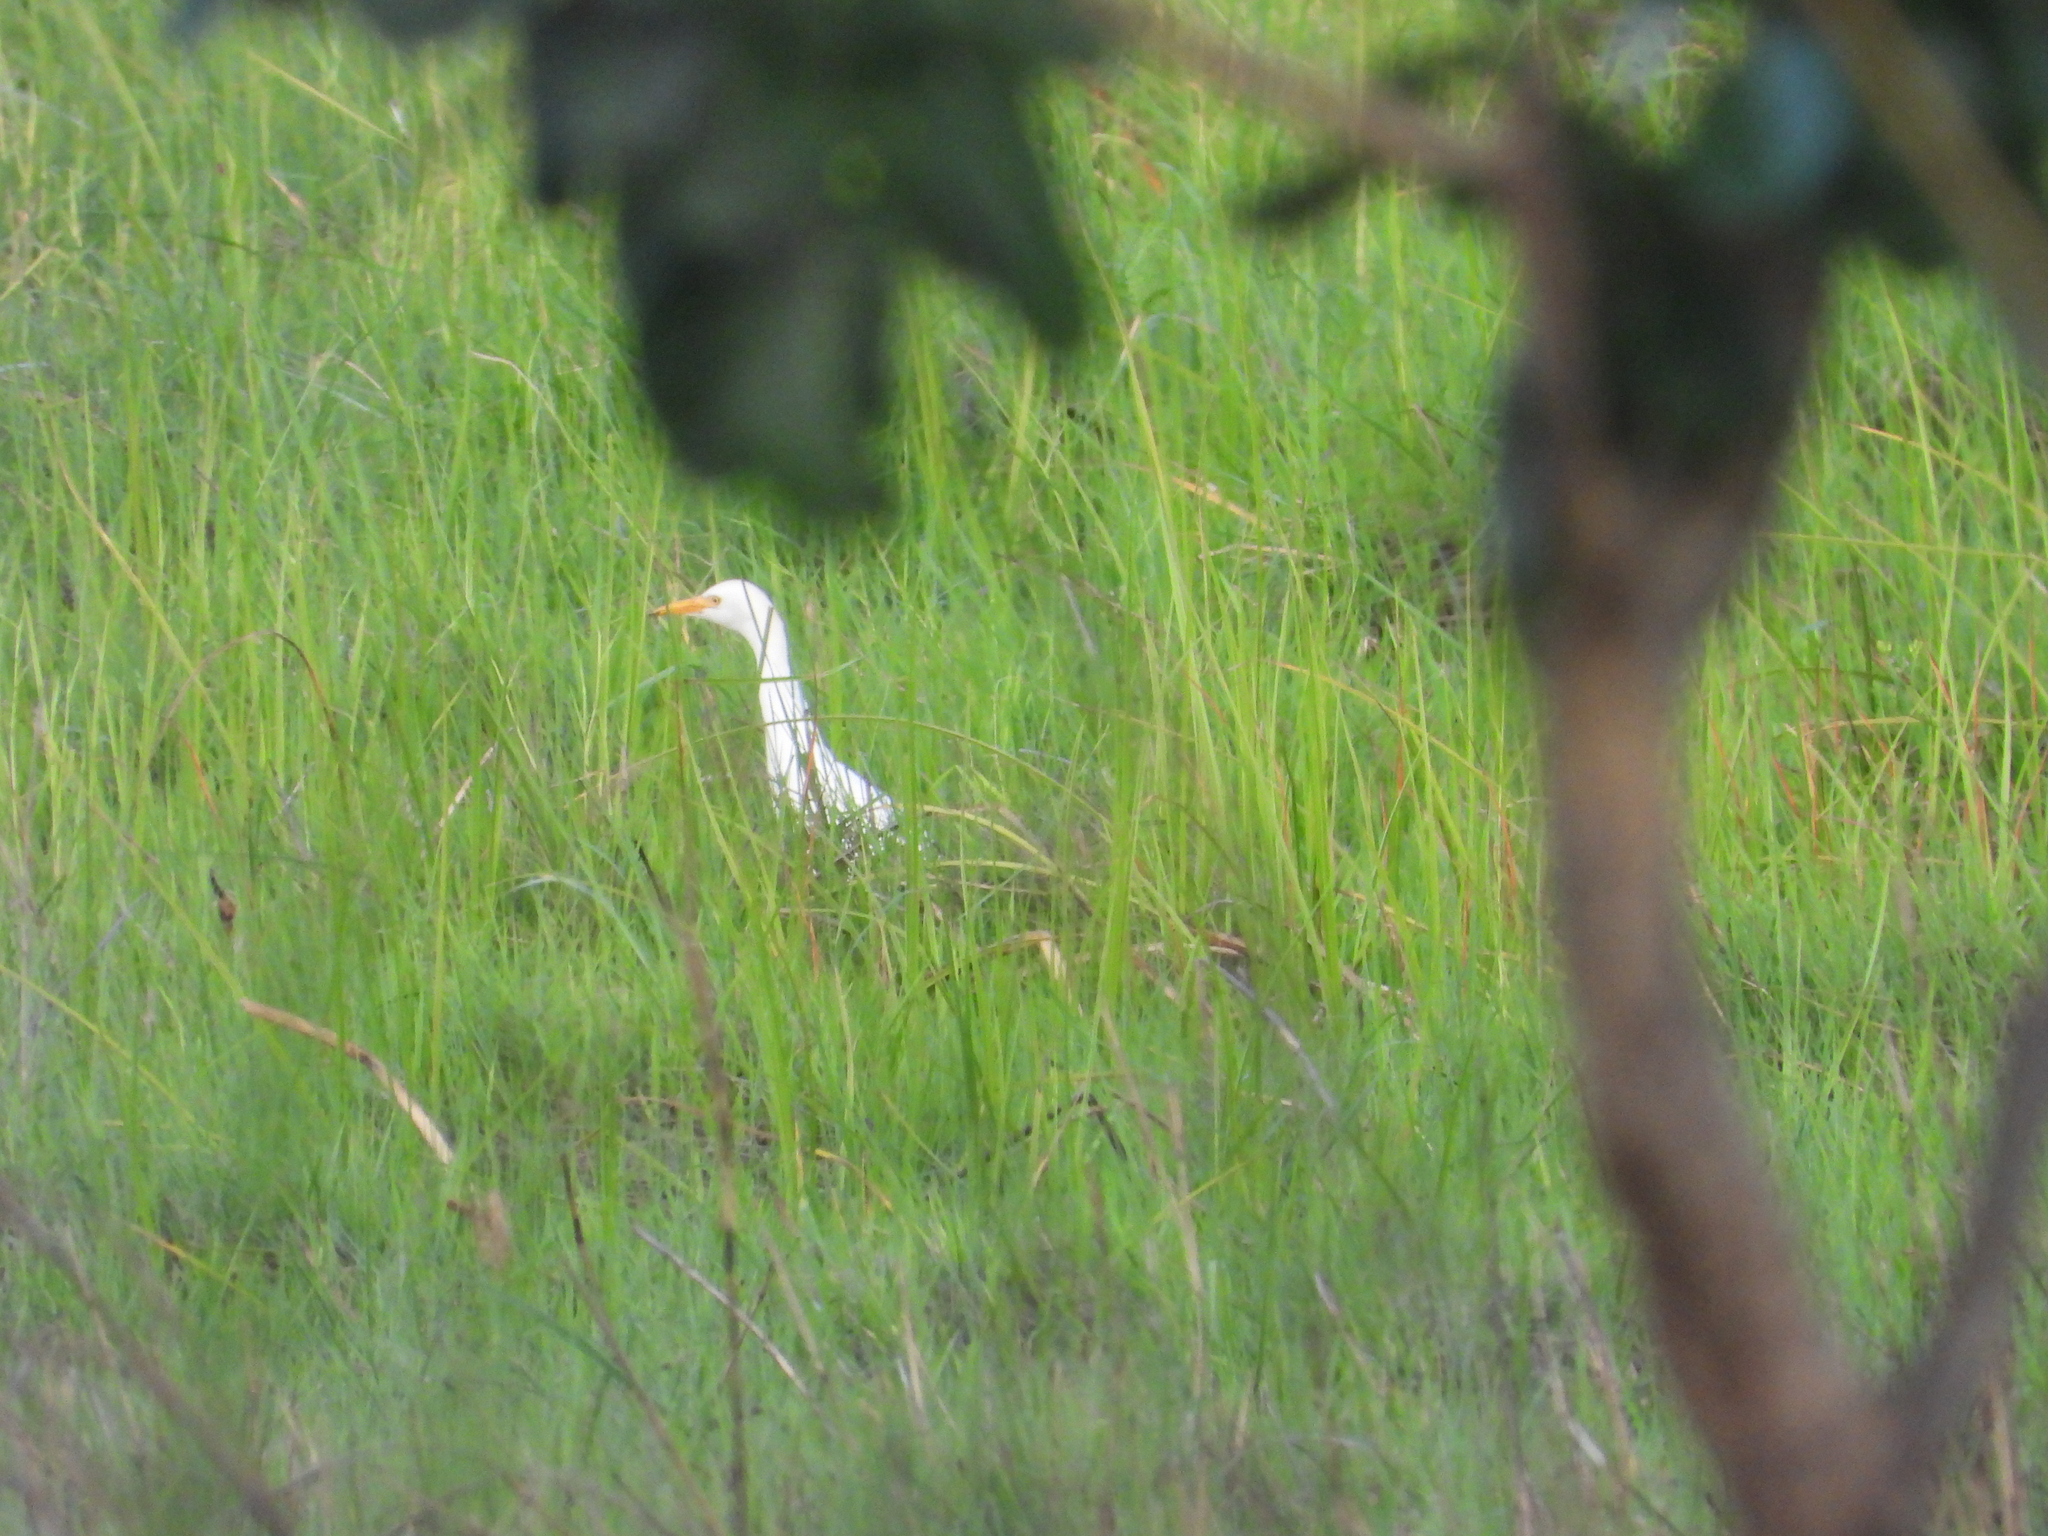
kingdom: Animalia
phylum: Chordata
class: Aves
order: Pelecaniformes
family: Ardeidae
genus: Bubulcus
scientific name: Bubulcus ibis
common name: Cattle egret
